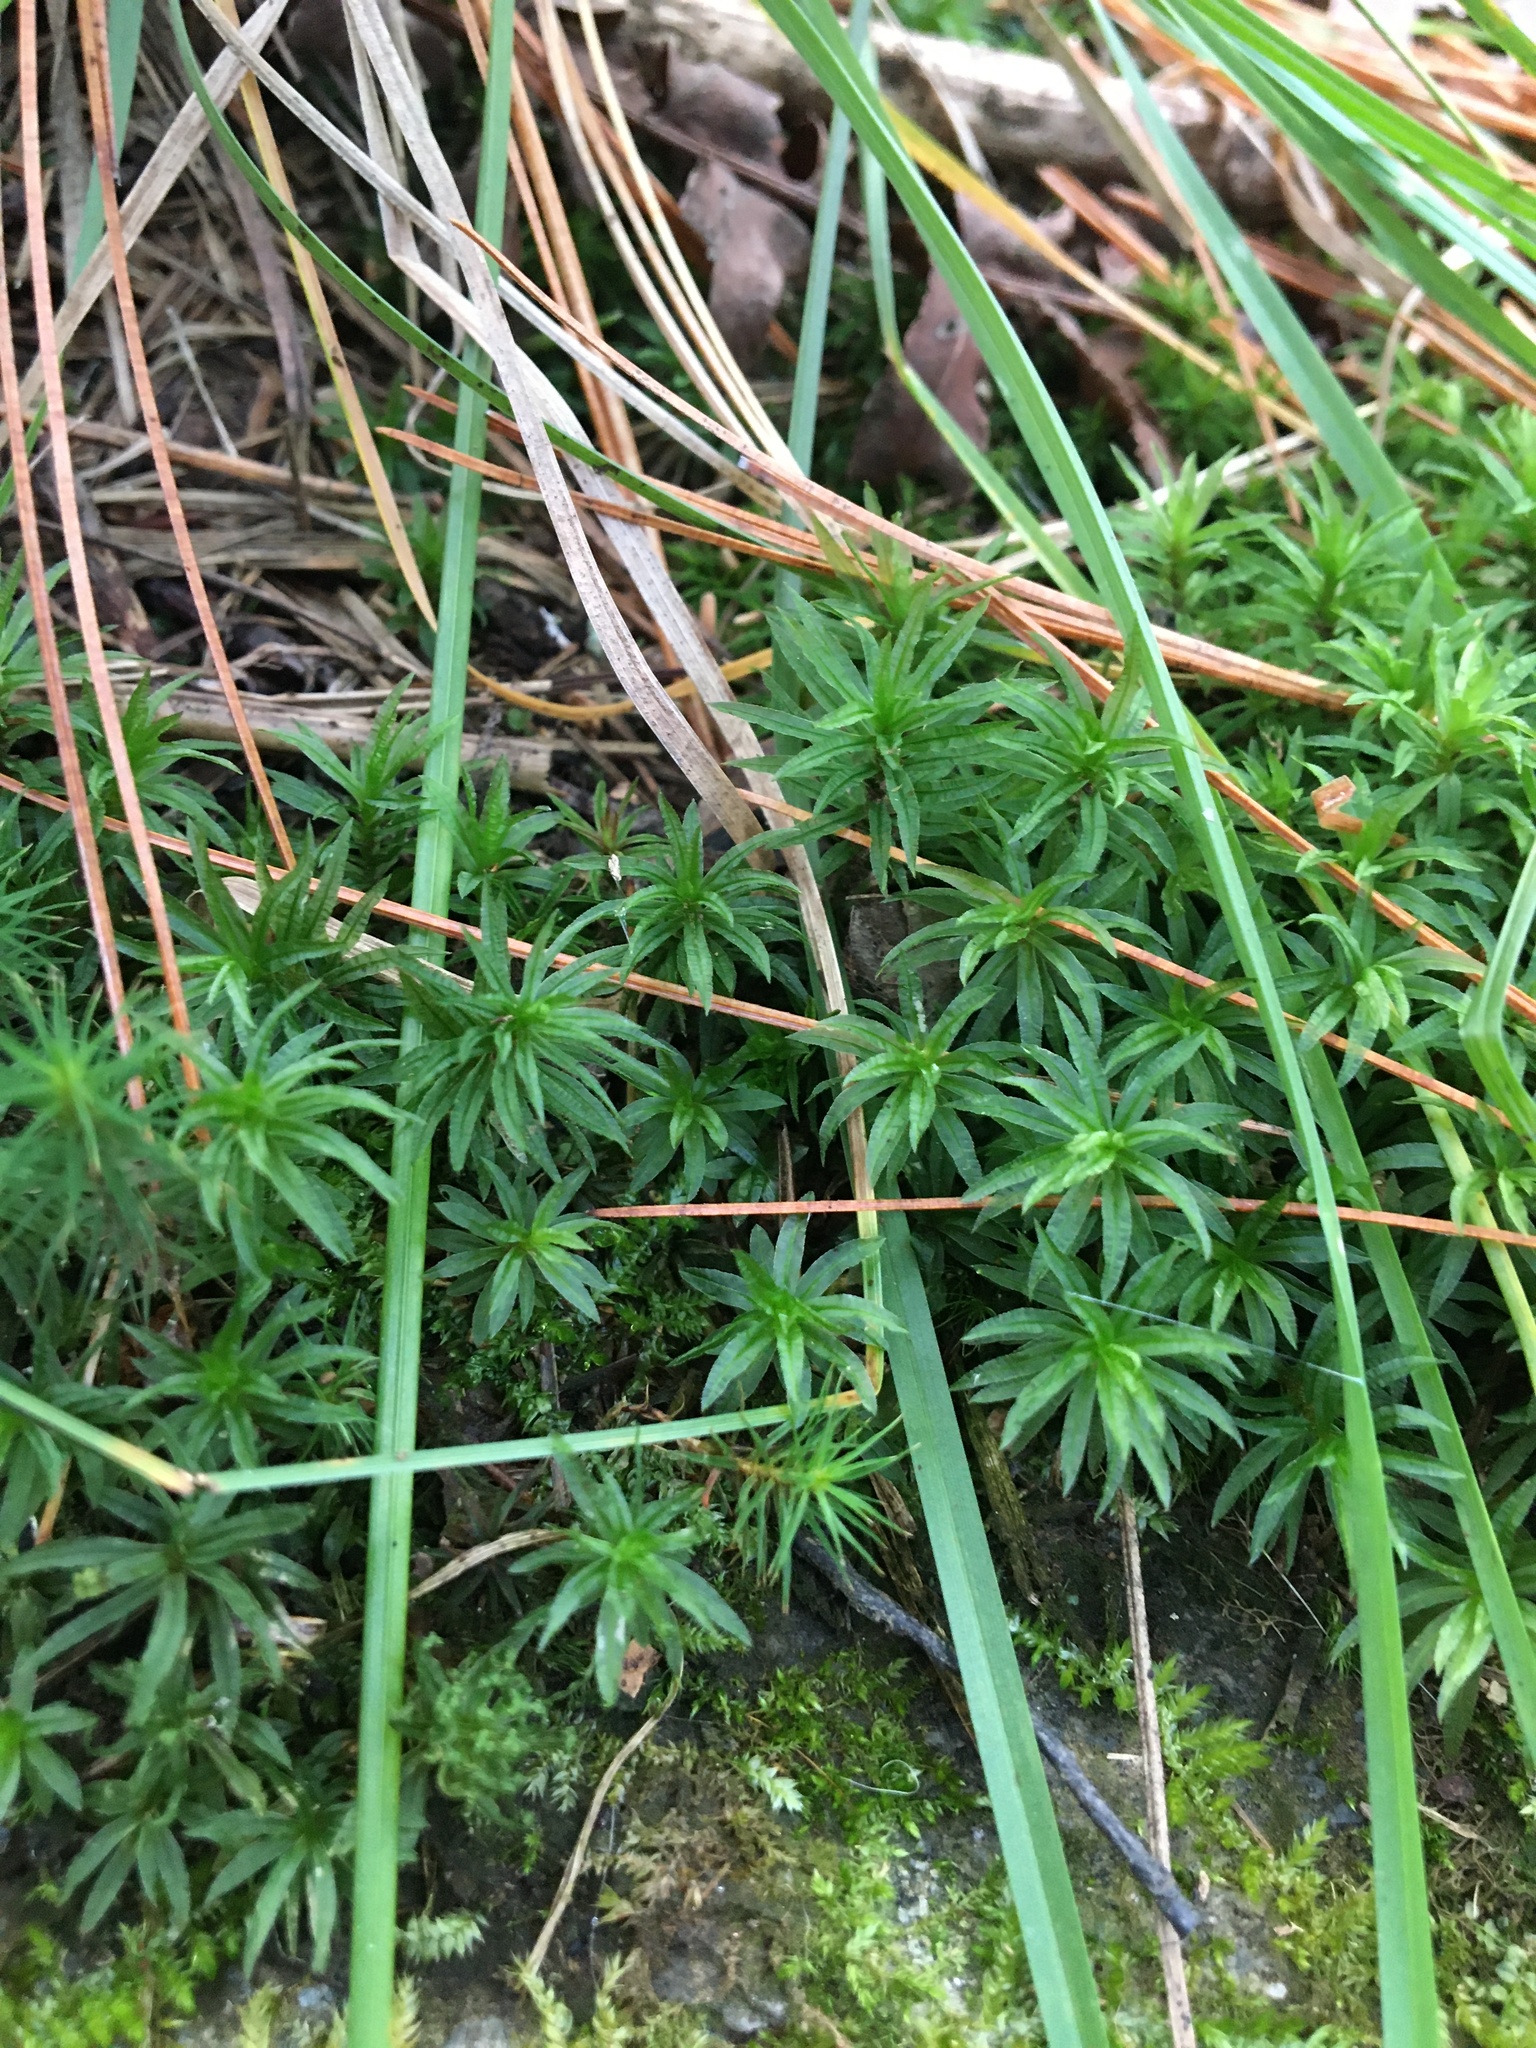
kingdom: Plantae
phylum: Bryophyta
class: Polytrichopsida
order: Polytrichales
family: Polytrichaceae
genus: Atrichum
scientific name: Atrichum undulatum
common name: Common smoothcap
